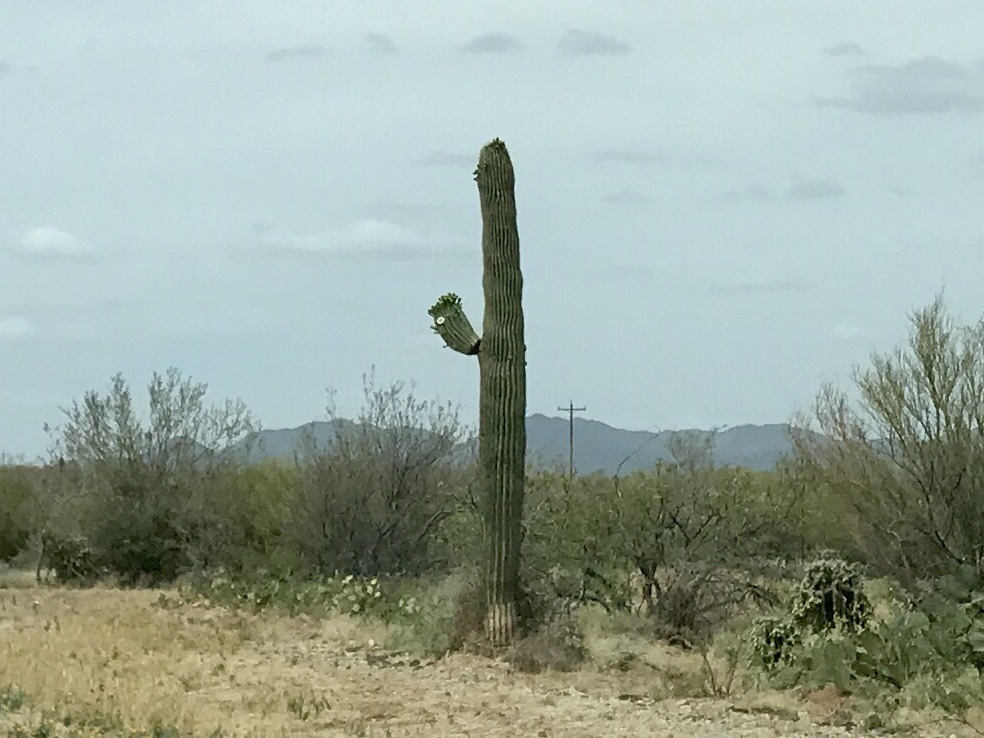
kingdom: Plantae
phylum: Tracheophyta
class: Magnoliopsida
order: Caryophyllales
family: Cactaceae
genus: Carnegiea
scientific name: Carnegiea gigantea
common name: Saguaro
